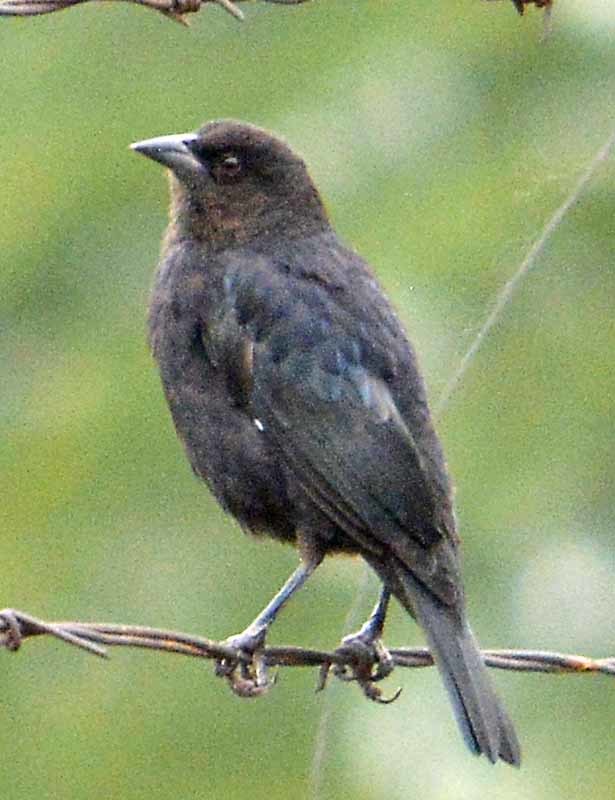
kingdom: Animalia
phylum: Chordata
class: Aves
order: Passeriformes
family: Icteridae
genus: Molothrus
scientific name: Molothrus aeneus
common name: Bronzed cowbird
